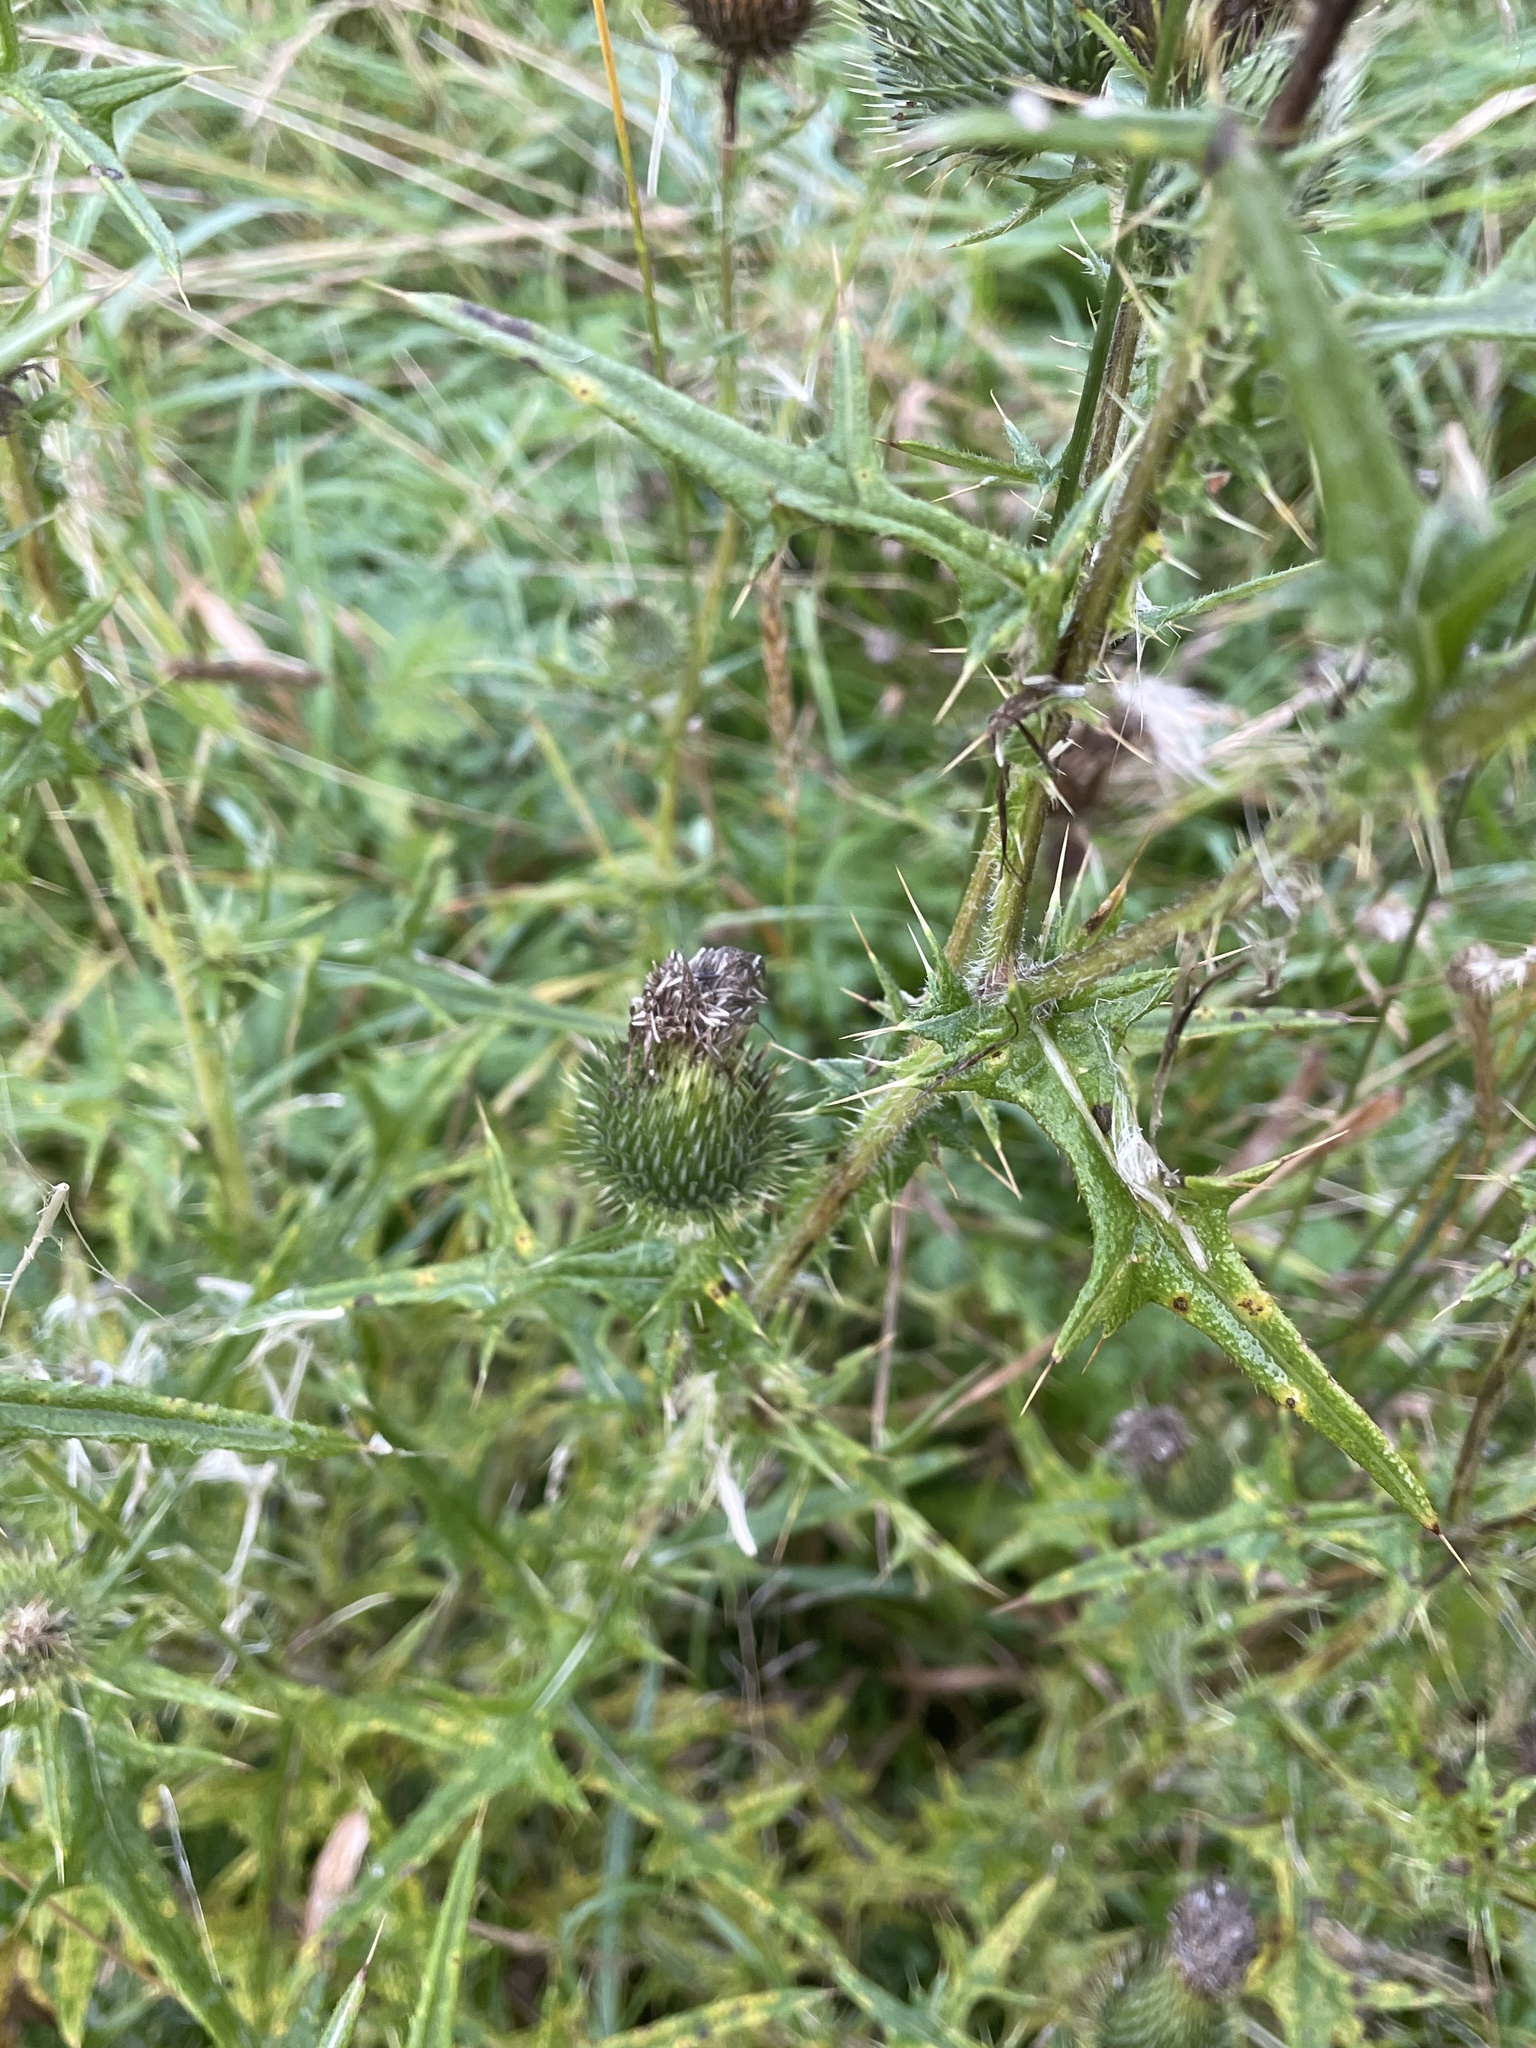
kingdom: Plantae
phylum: Tracheophyta
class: Magnoliopsida
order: Asterales
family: Asteraceae
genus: Cirsium
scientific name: Cirsium vulgare
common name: Bull thistle
